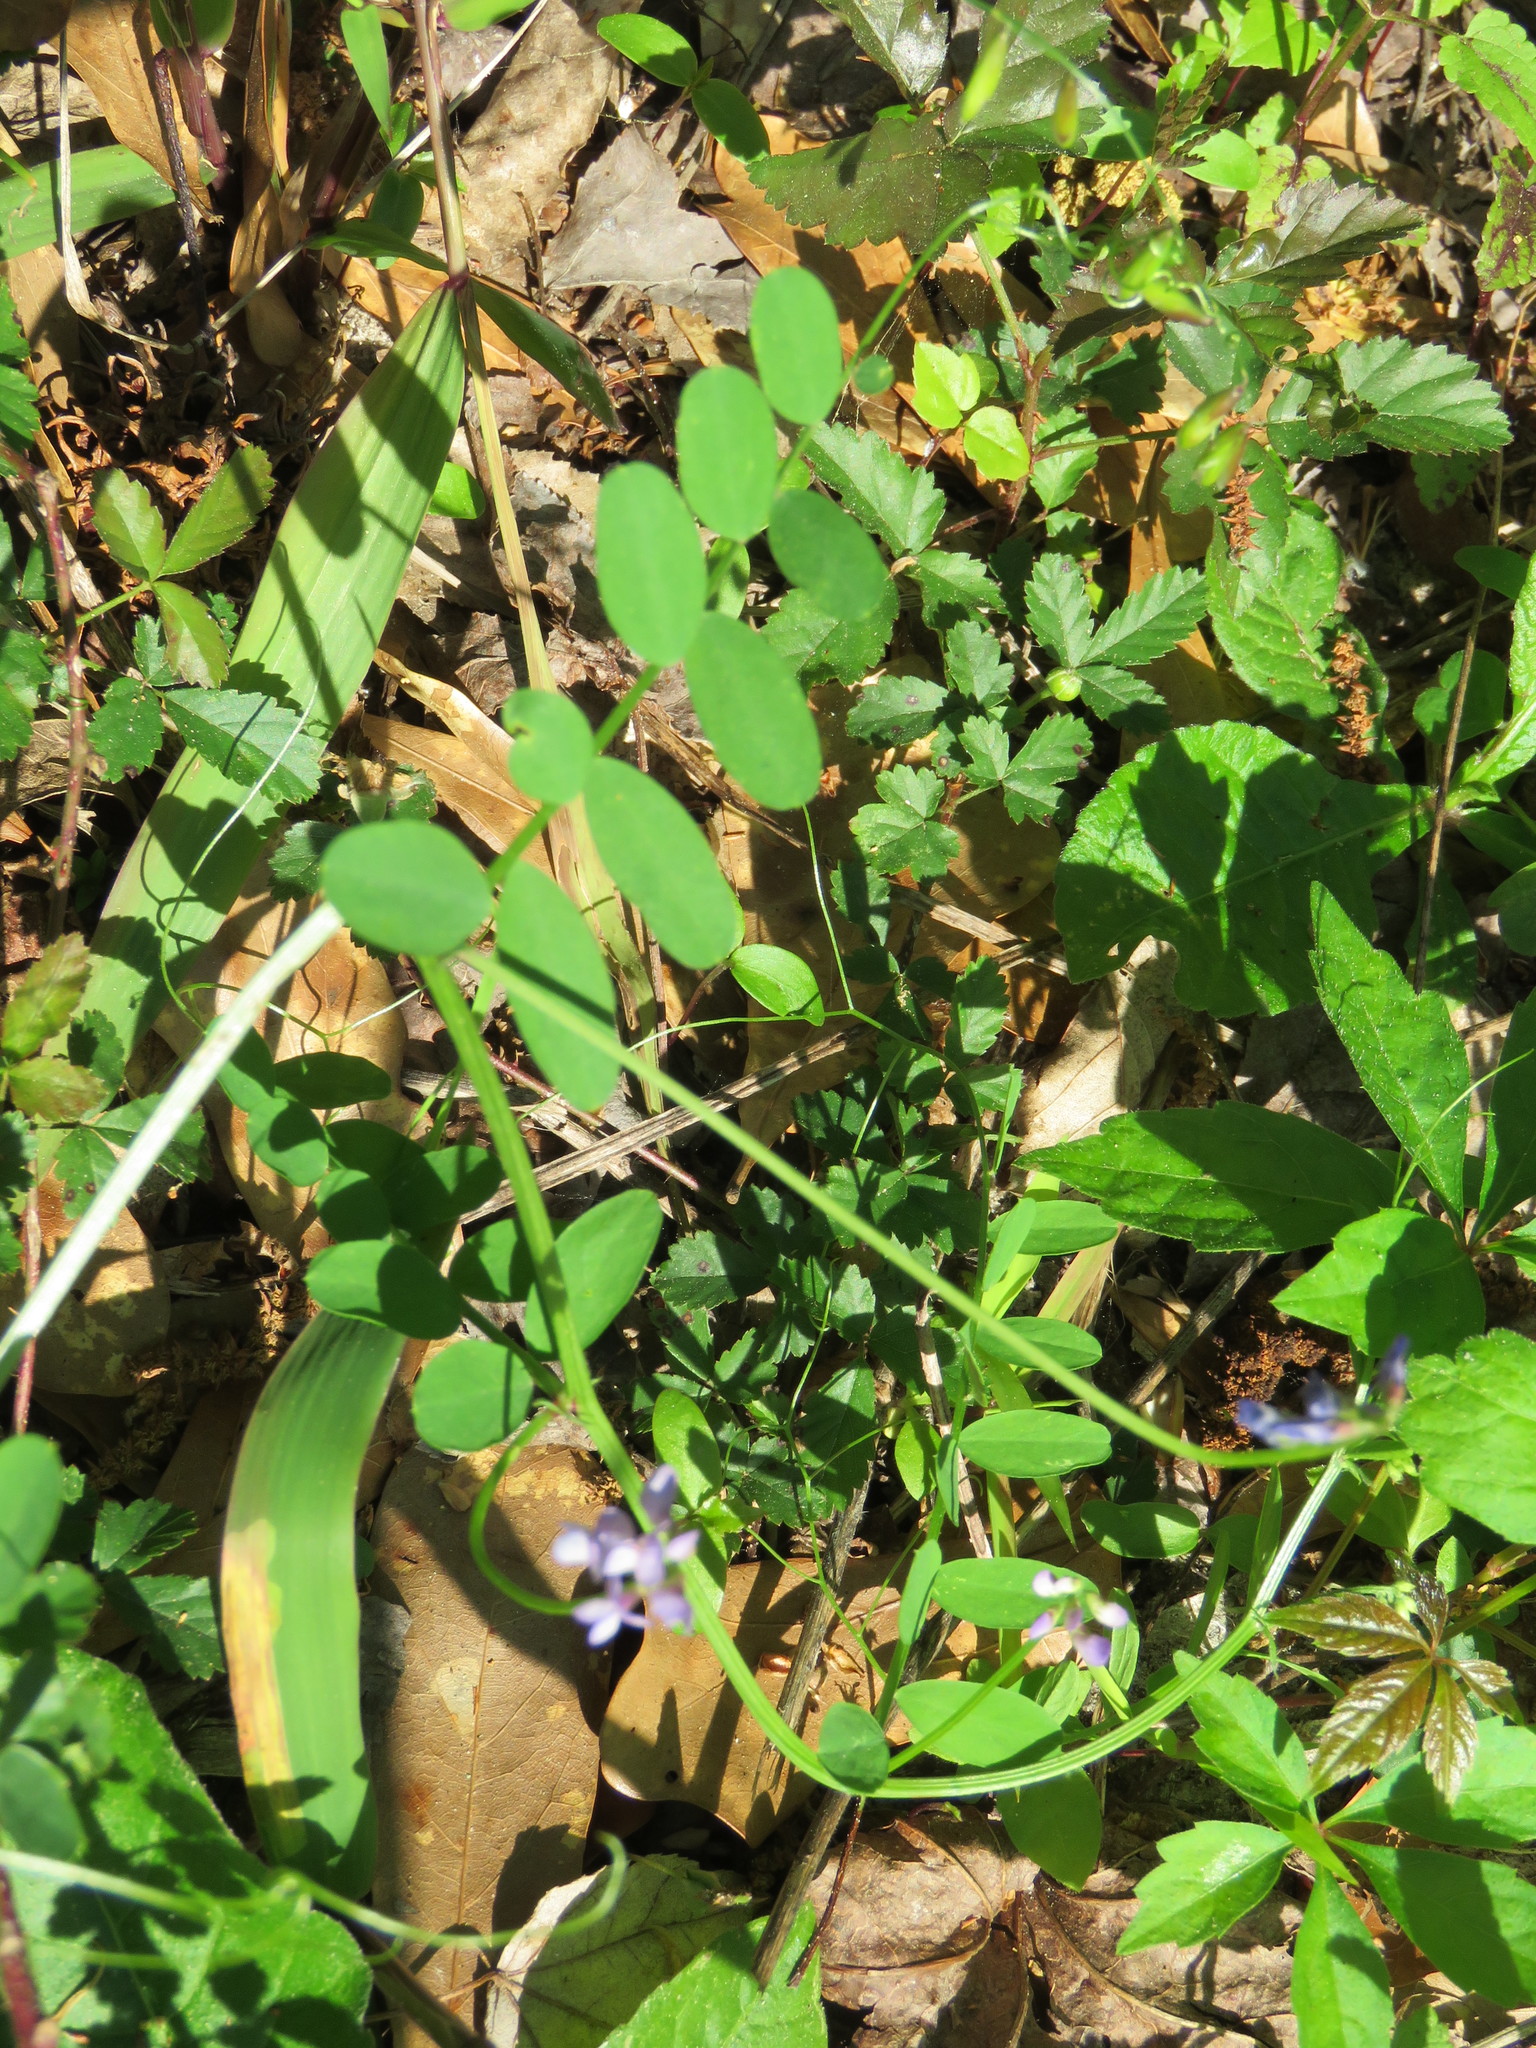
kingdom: Plantae
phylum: Tracheophyta
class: Magnoliopsida
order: Fabales
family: Fabaceae
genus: Vicia
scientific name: Vicia ludoviciana
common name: Louisiana vetch
